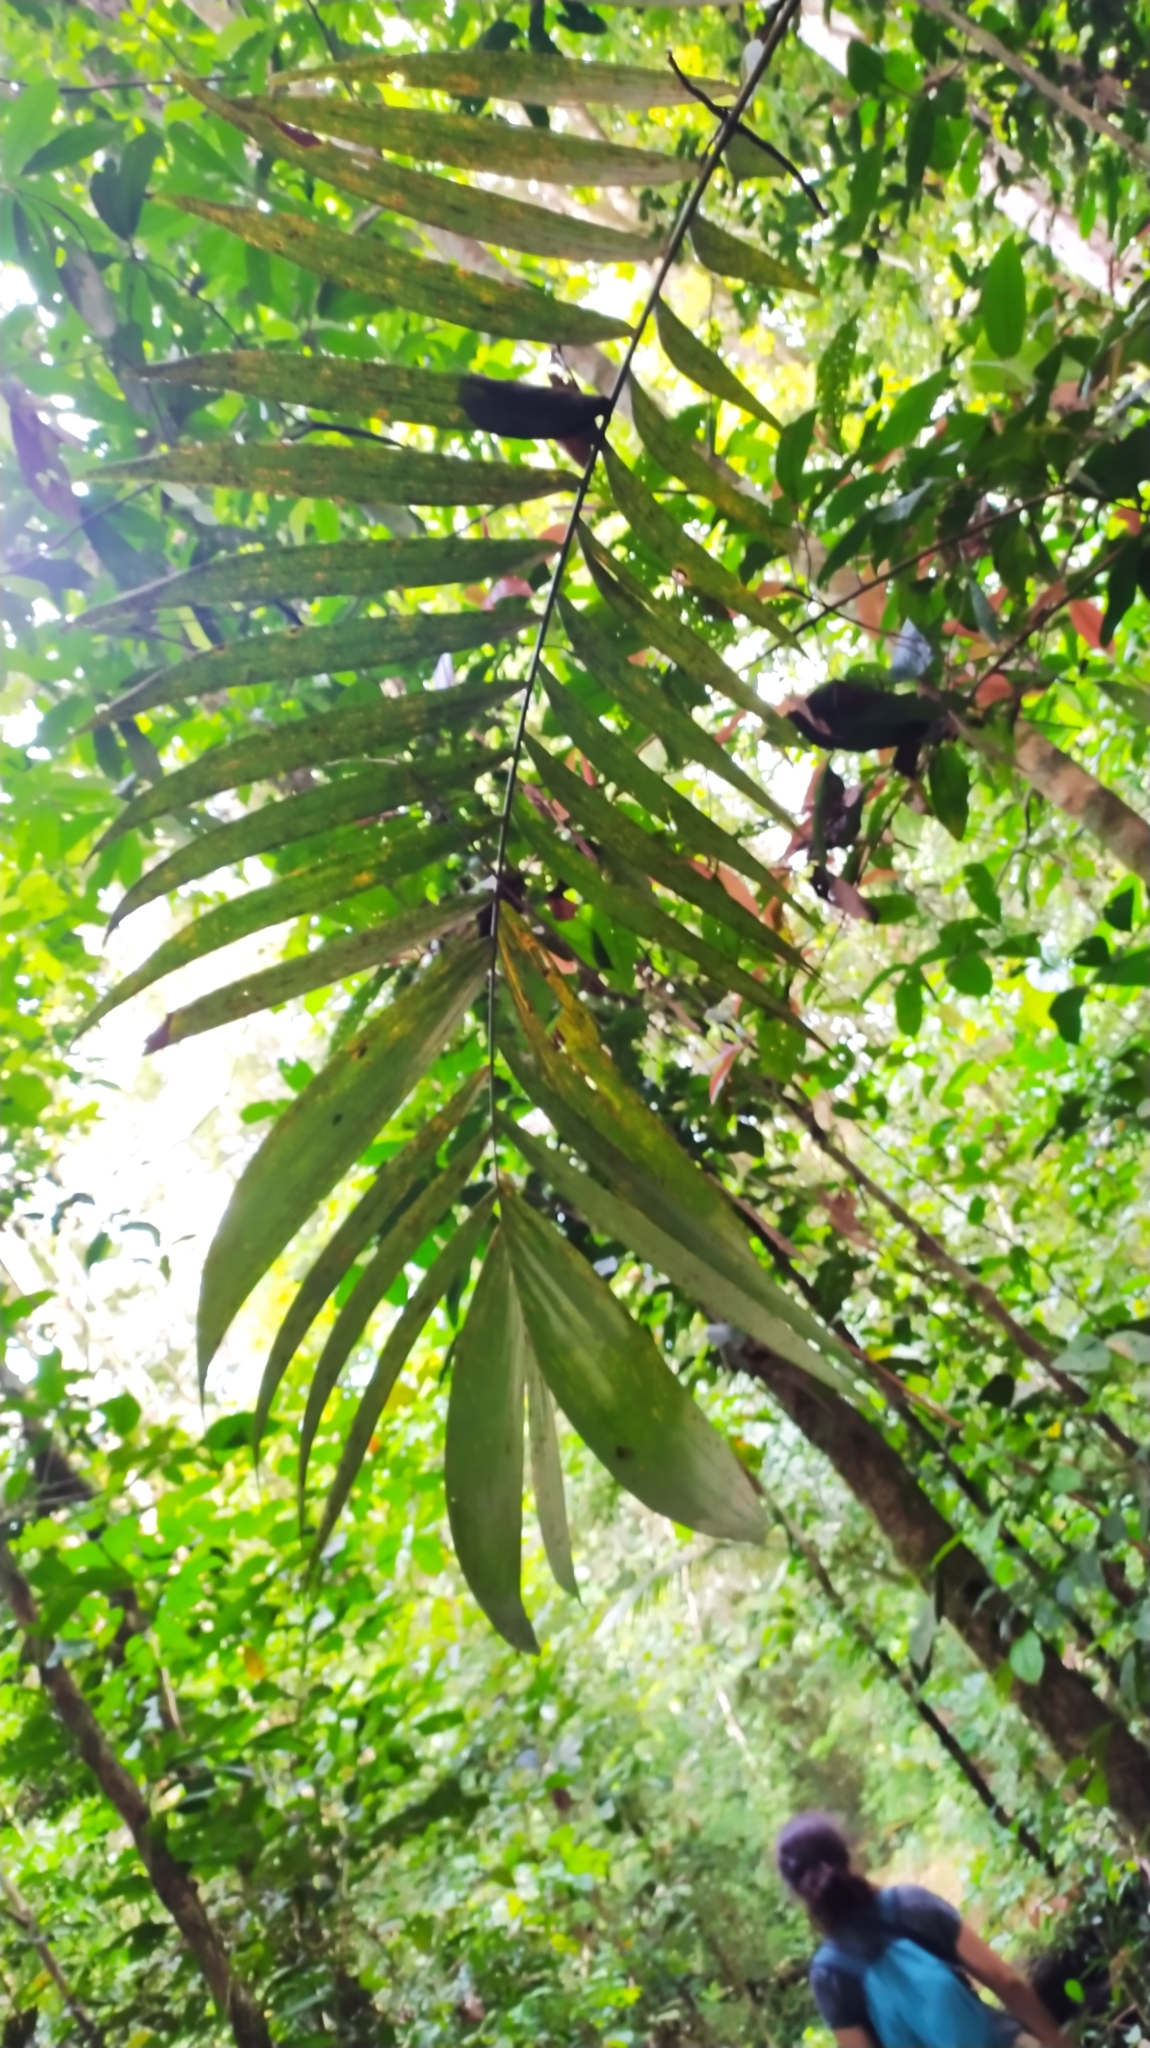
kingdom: Plantae
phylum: Tracheophyta
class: Liliopsida
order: Arecales
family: Arecaceae
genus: Astrocaryum
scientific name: Astrocaryum aculeatum
